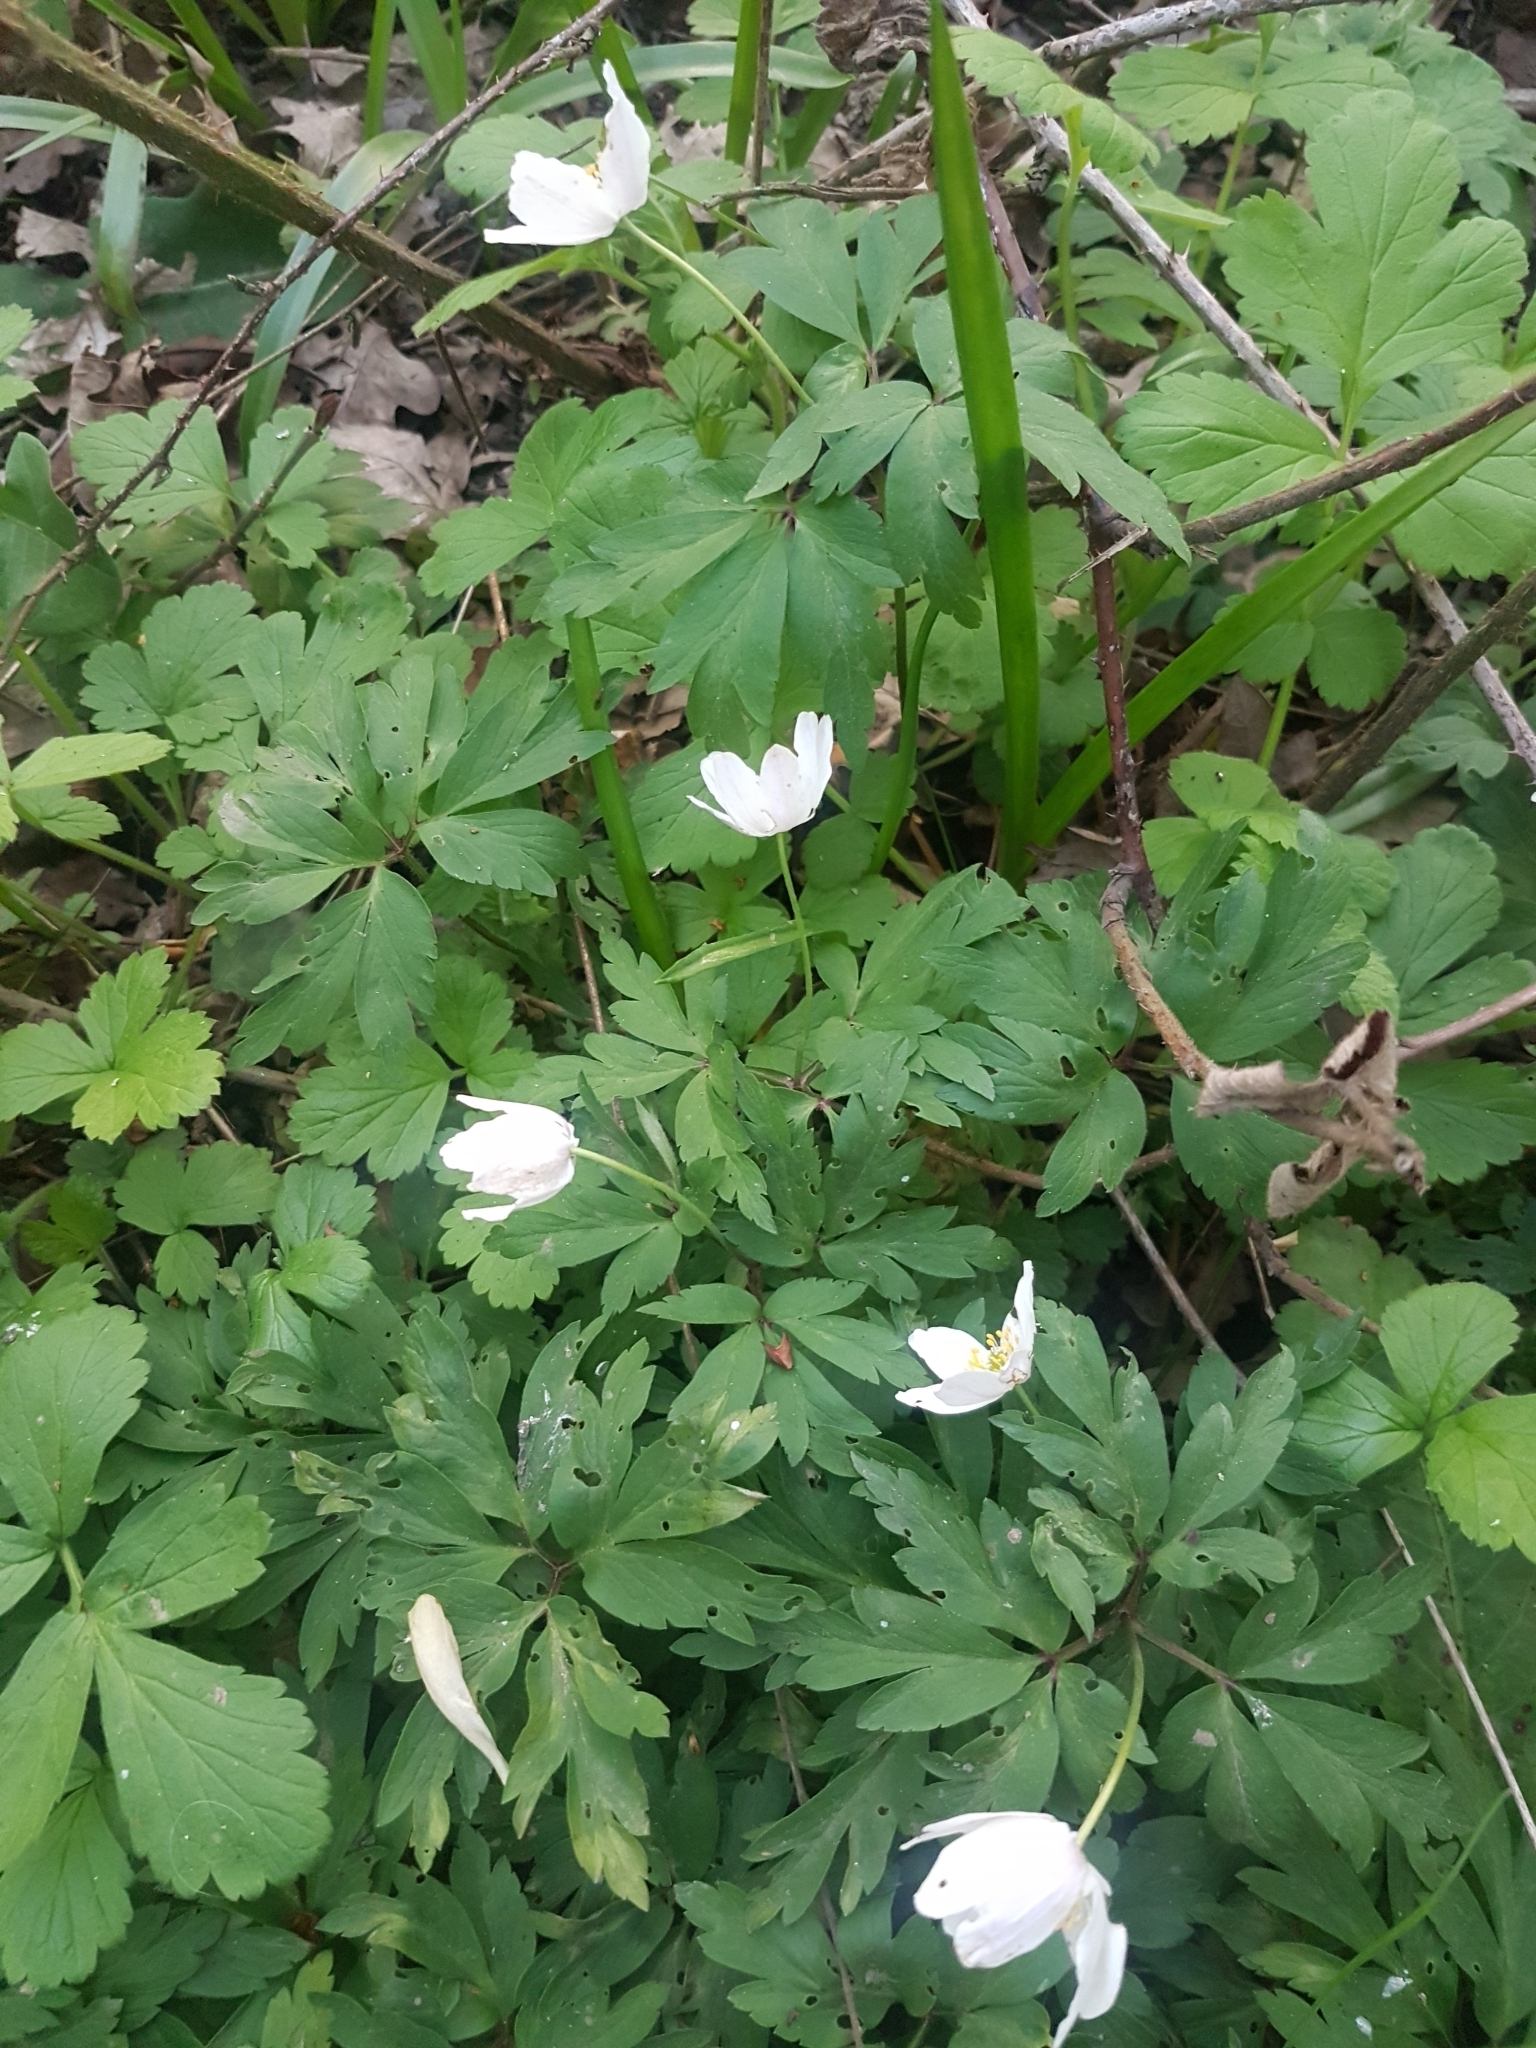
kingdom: Plantae
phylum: Tracheophyta
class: Magnoliopsida
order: Ranunculales
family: Ranunculaceae
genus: Anemone
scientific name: Anemone nemorosa
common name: Wood anemone
